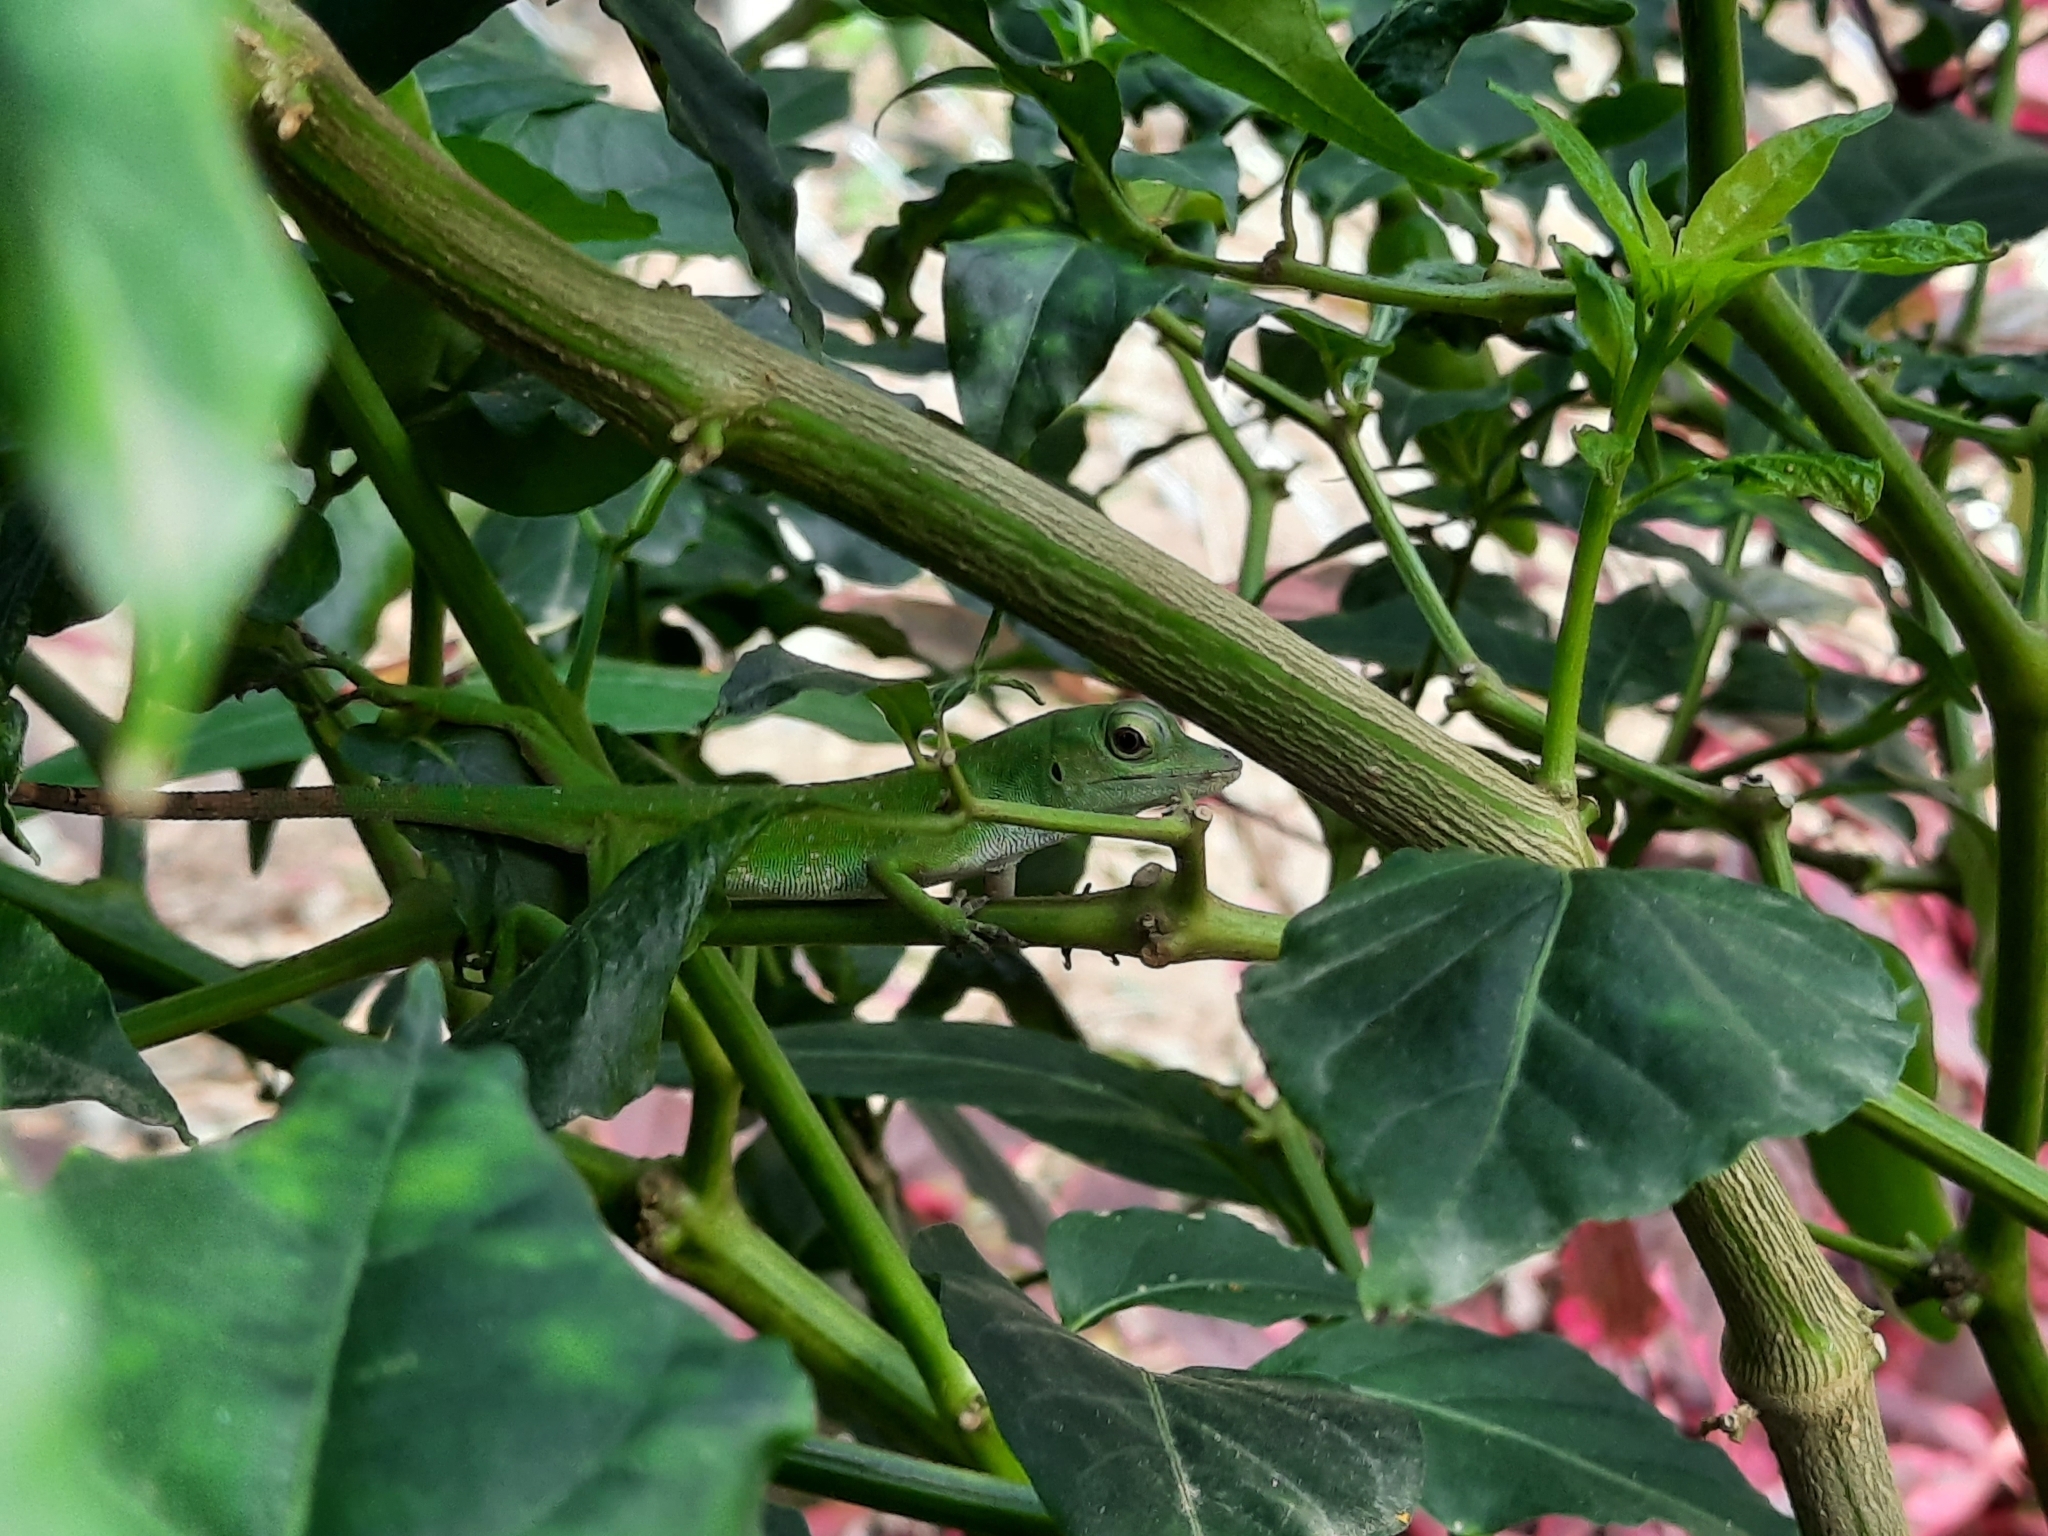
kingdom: Animalia
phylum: Chordata
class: Squamata
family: Dactyloidae
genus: Anolis
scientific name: Anolis biporcatus
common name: Giant green anole
